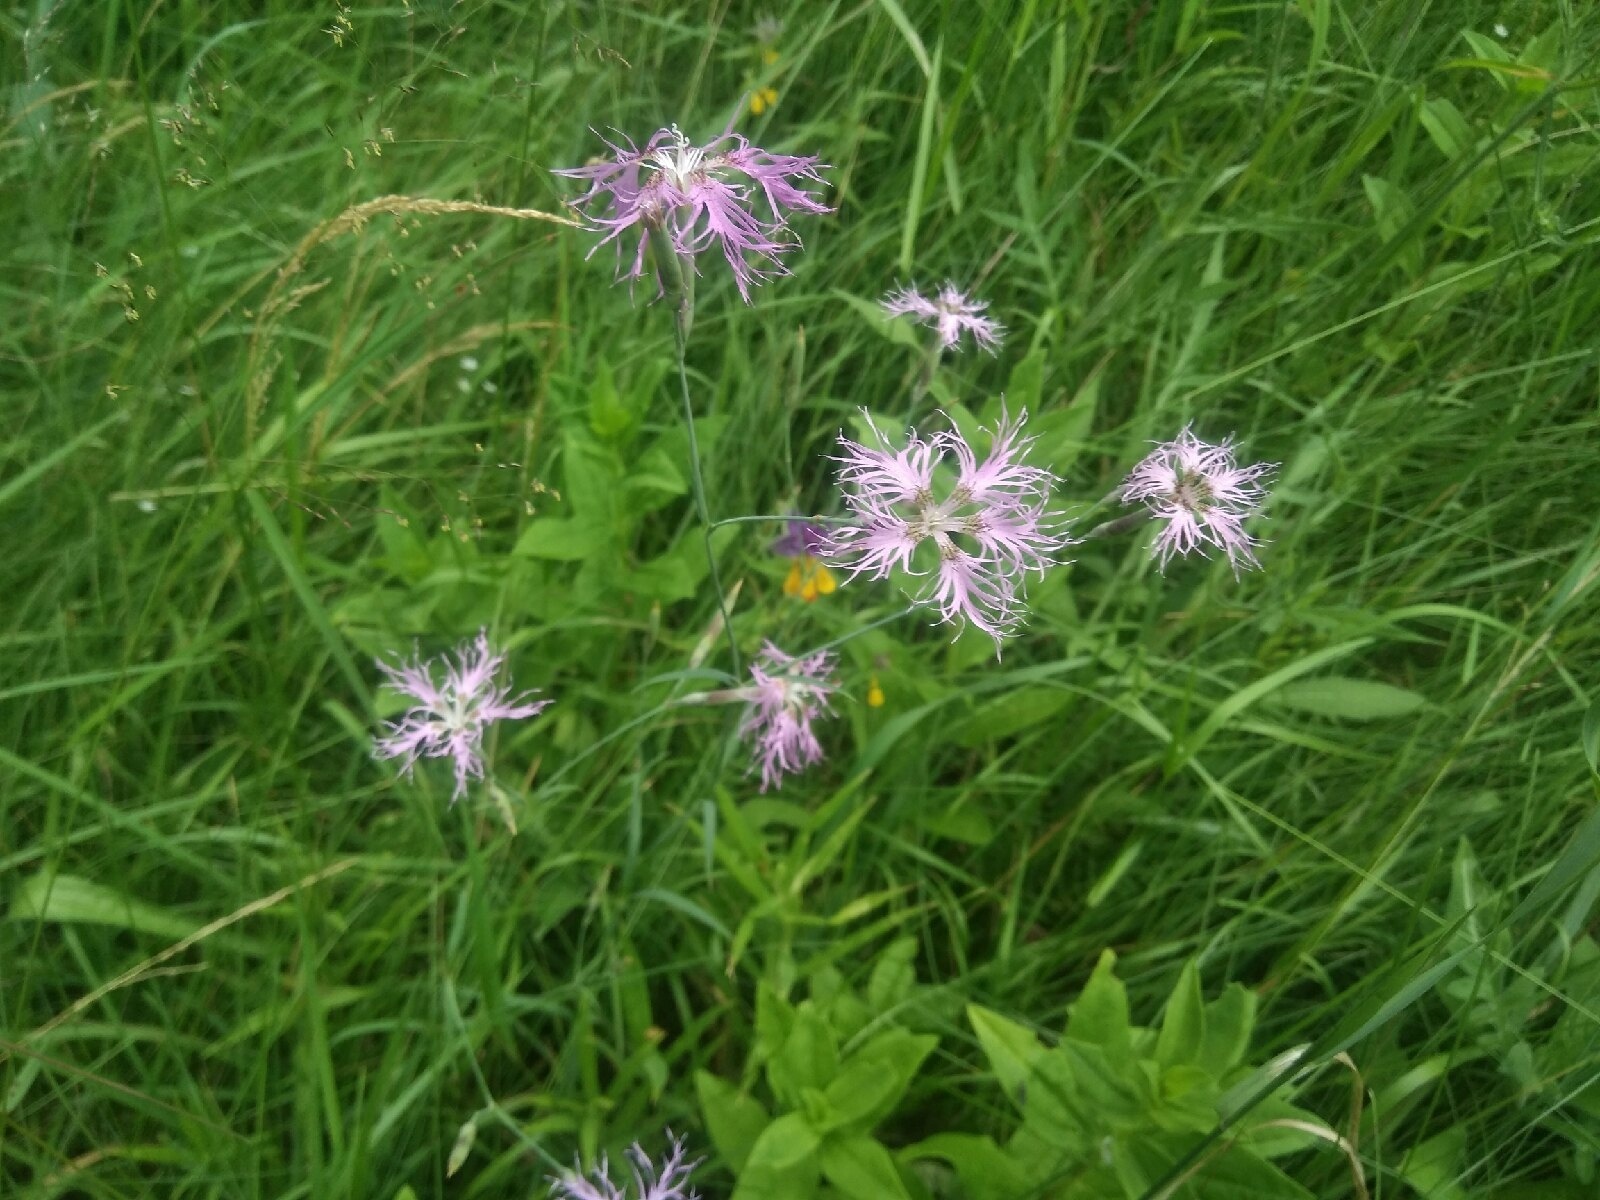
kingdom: Plantae
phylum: Tracheophyta
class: Magnoliopsida
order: Caryophyllales
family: Caryophyllaceae
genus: Dianthus
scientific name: Dianthus superbus
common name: Fringed pink
